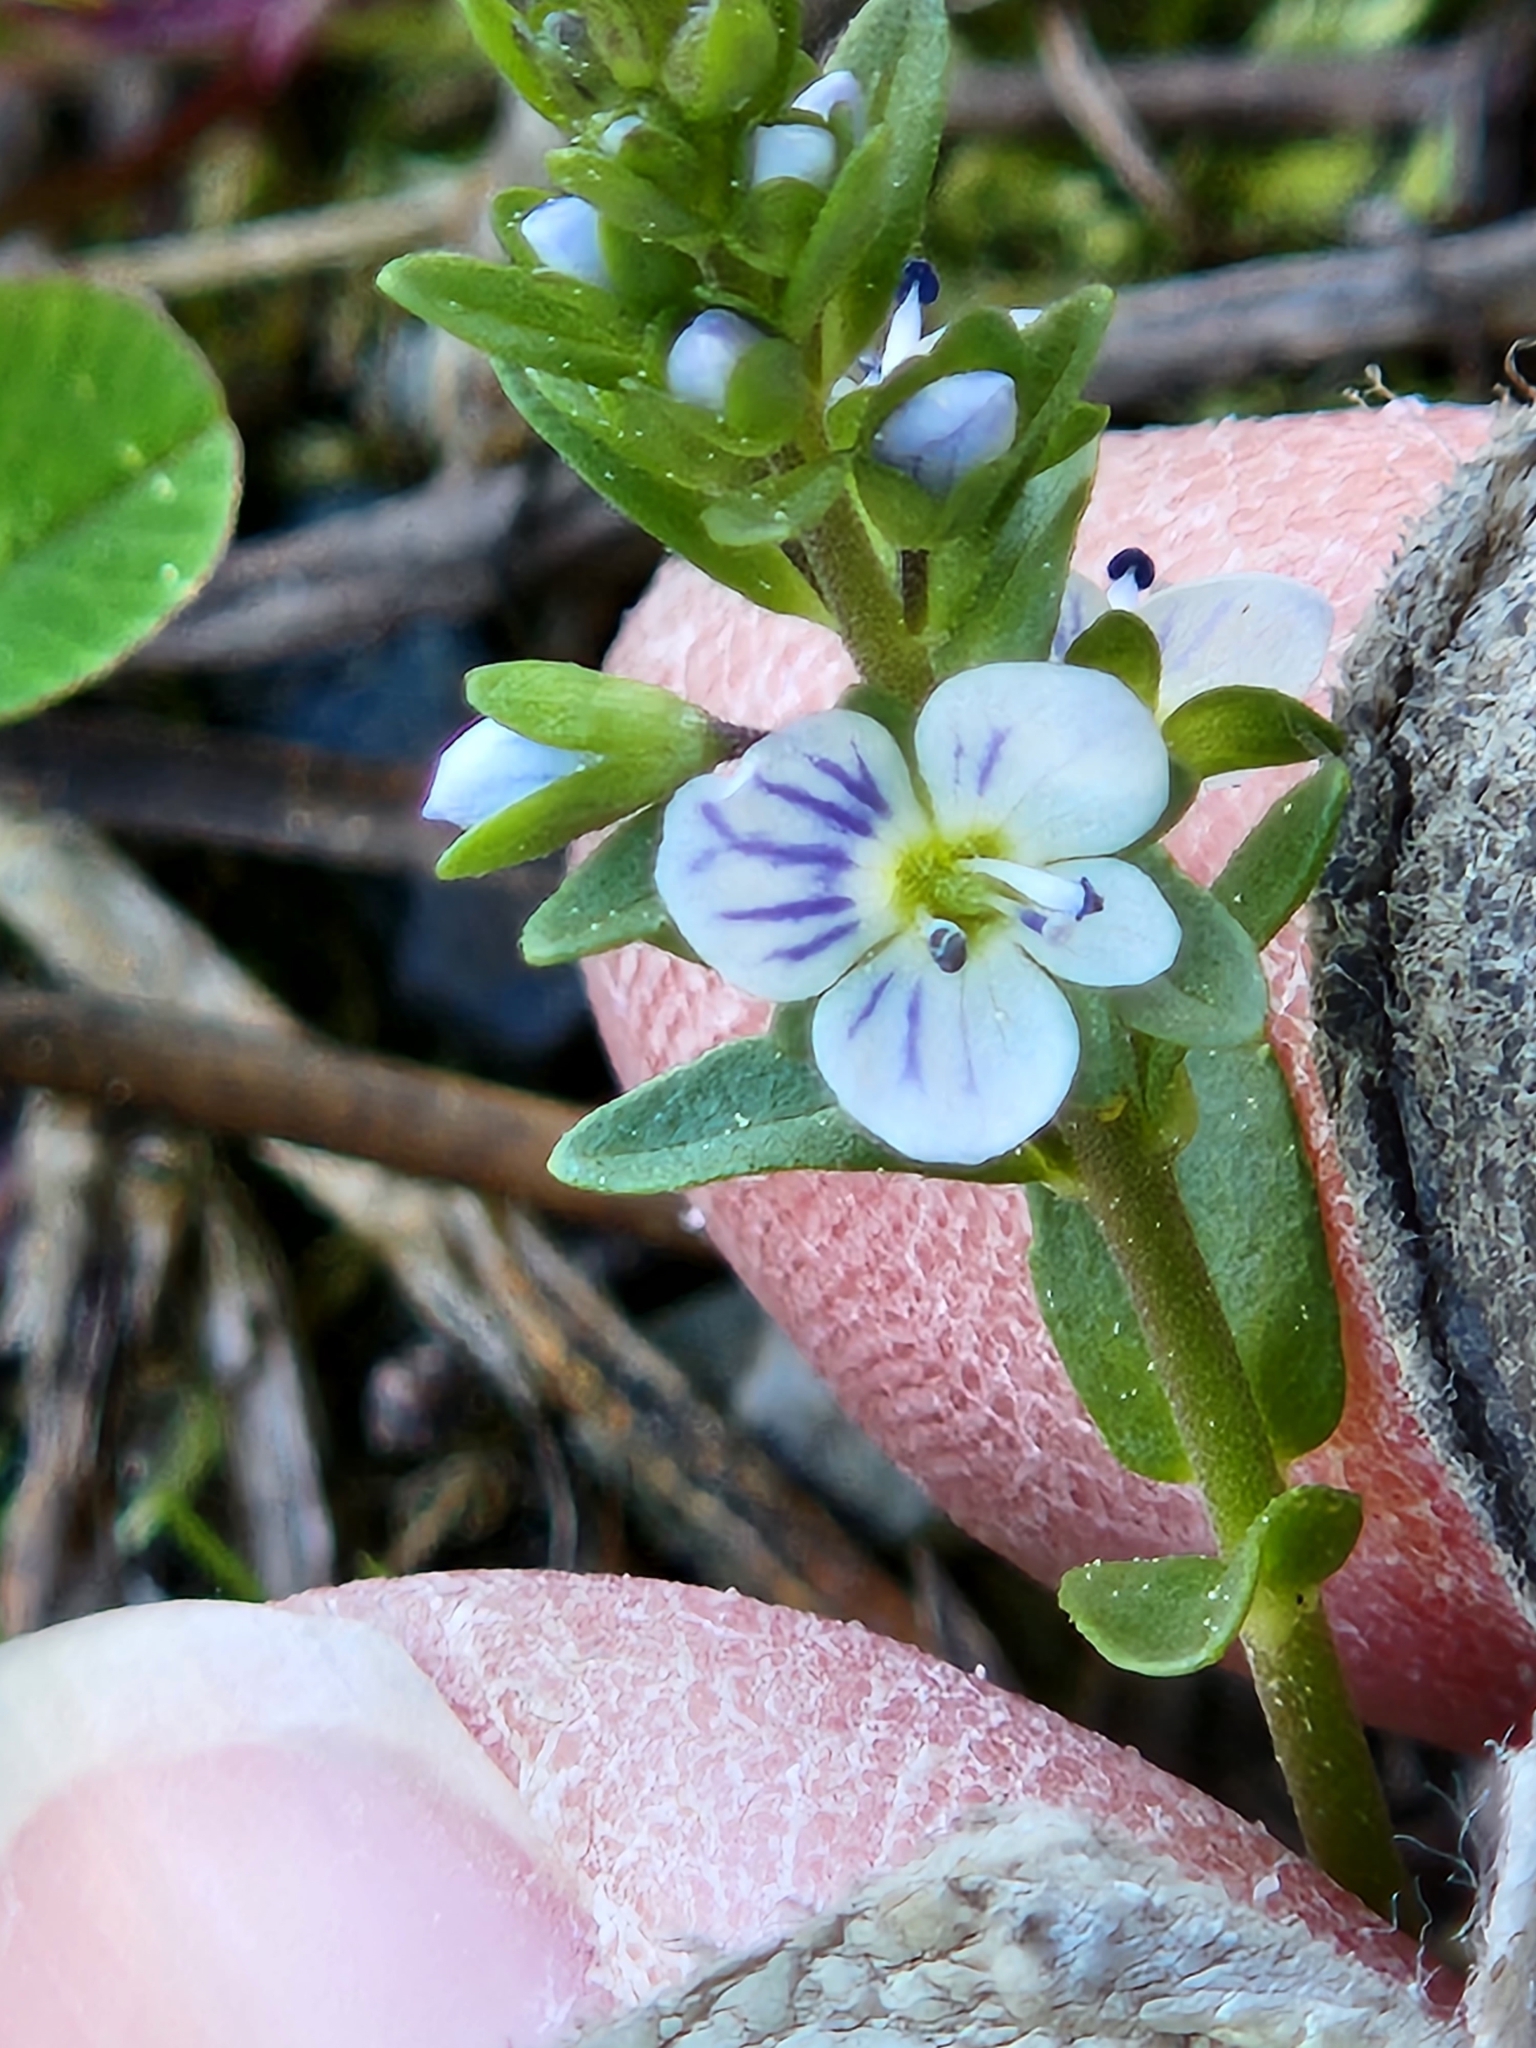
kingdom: Plantae
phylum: Tracheophyta
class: Magnoliopsida
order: Lamiales
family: Plantaginaceae
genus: Veronica
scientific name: Veronica serpyllifolia
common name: Thyme-leaved speedwell
